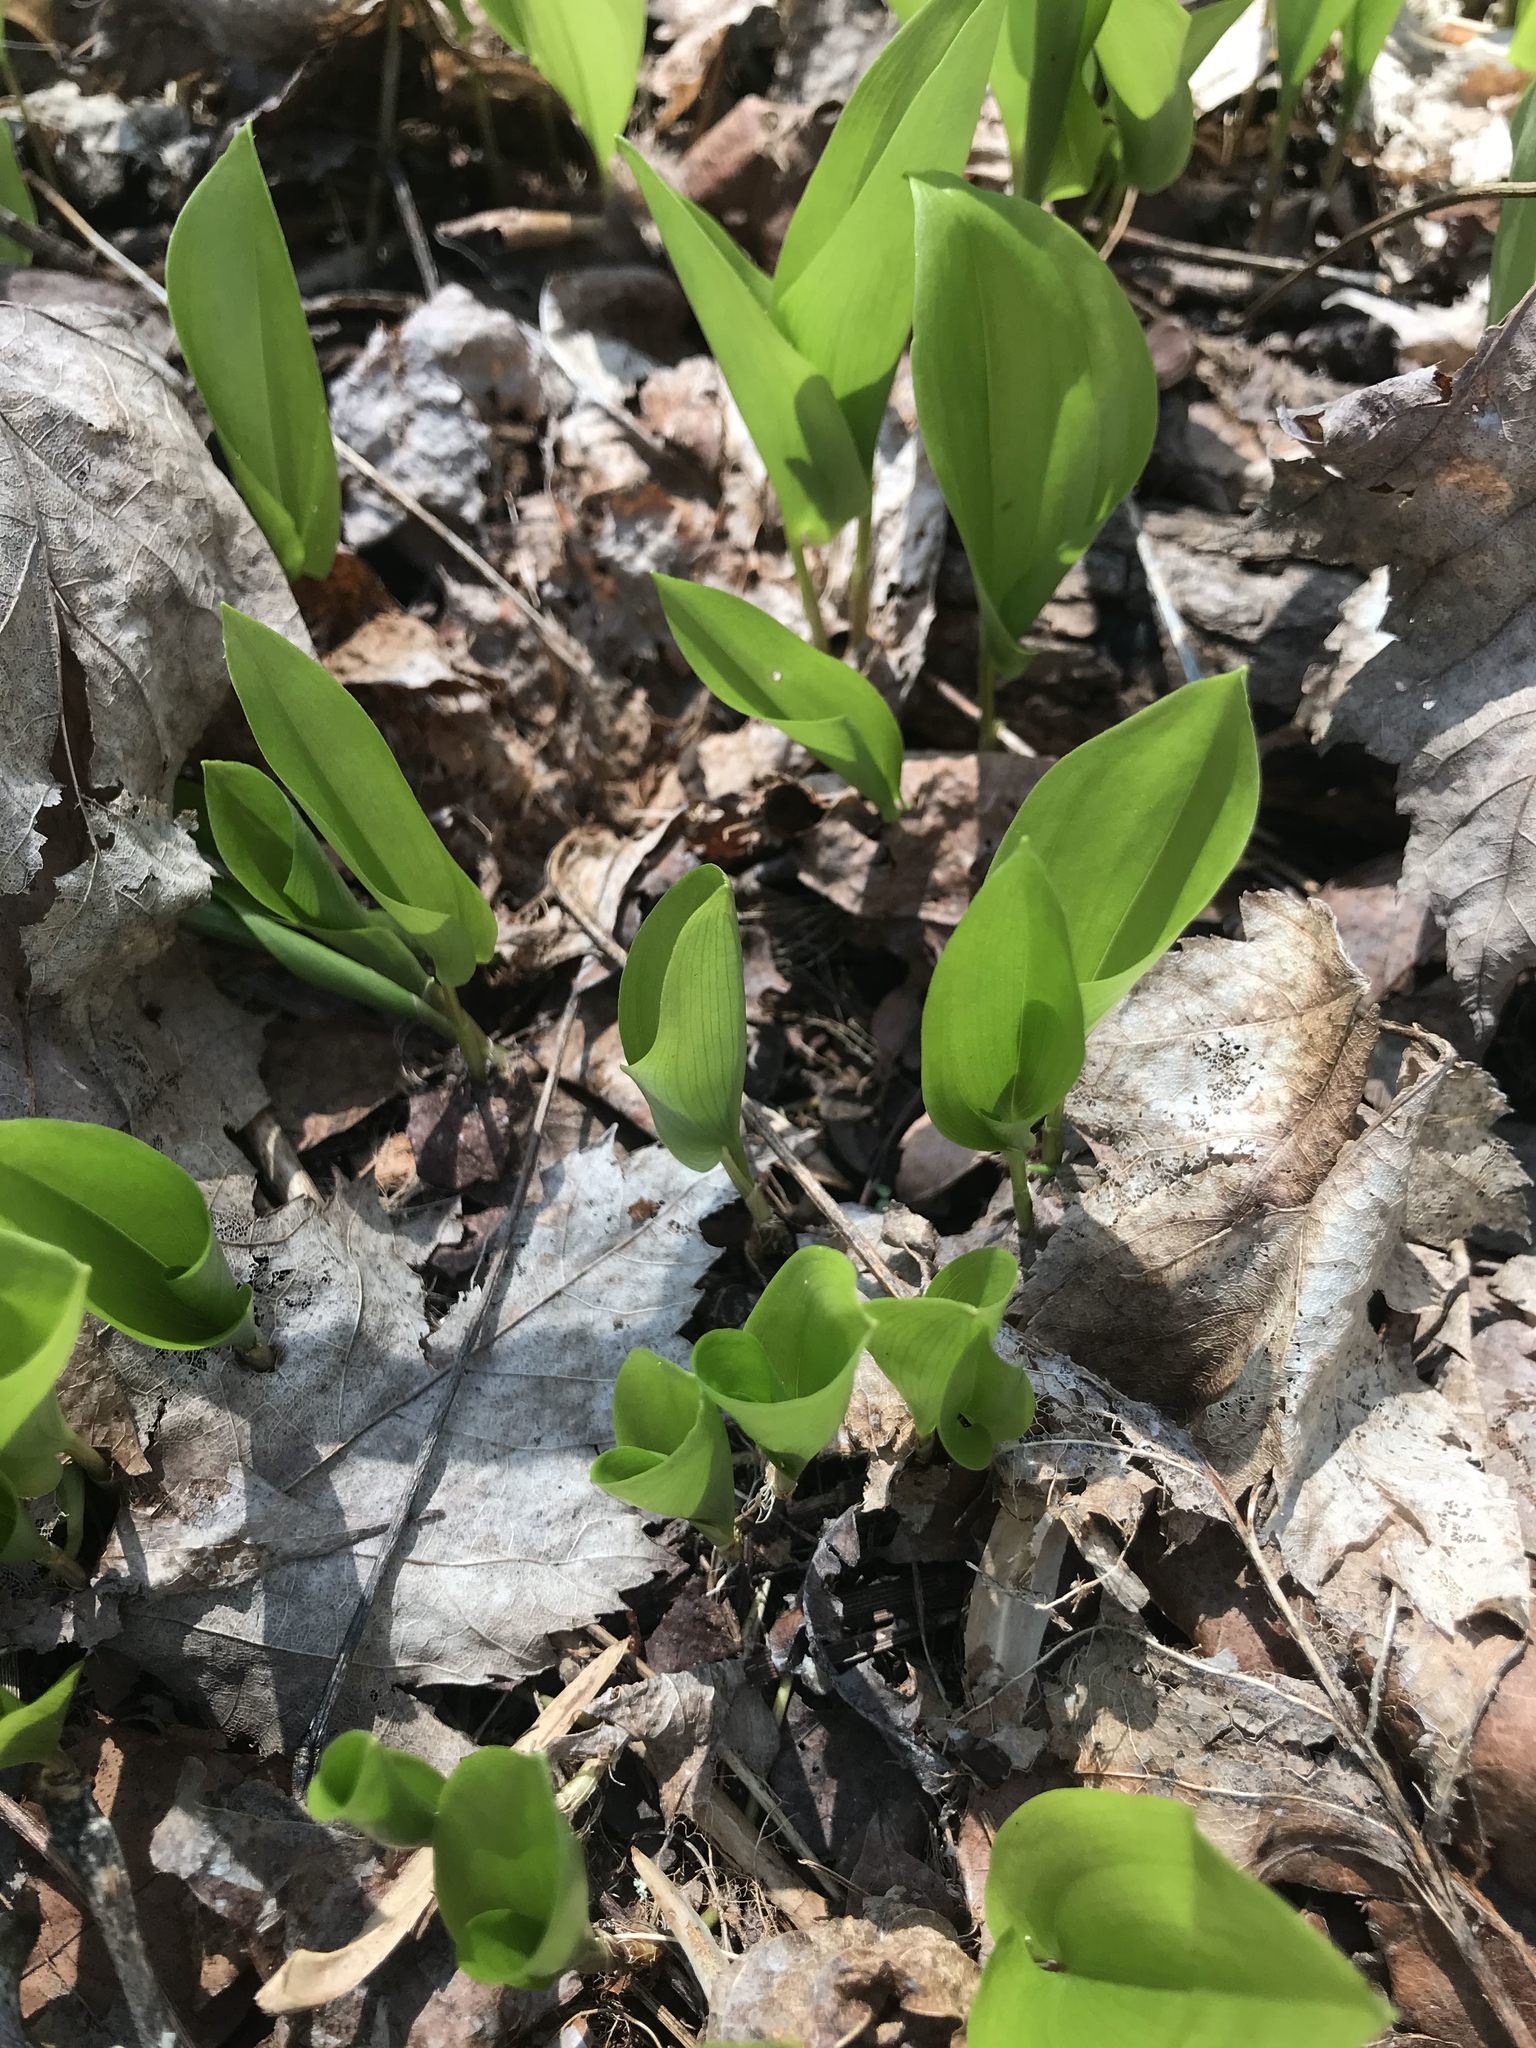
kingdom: Plantae
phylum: Tracheophyta
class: Liliopsida
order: Asparagales
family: Asparagaceae
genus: Maianthemum
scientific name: Maianthemum canadense
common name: False lily-of-the-valley
